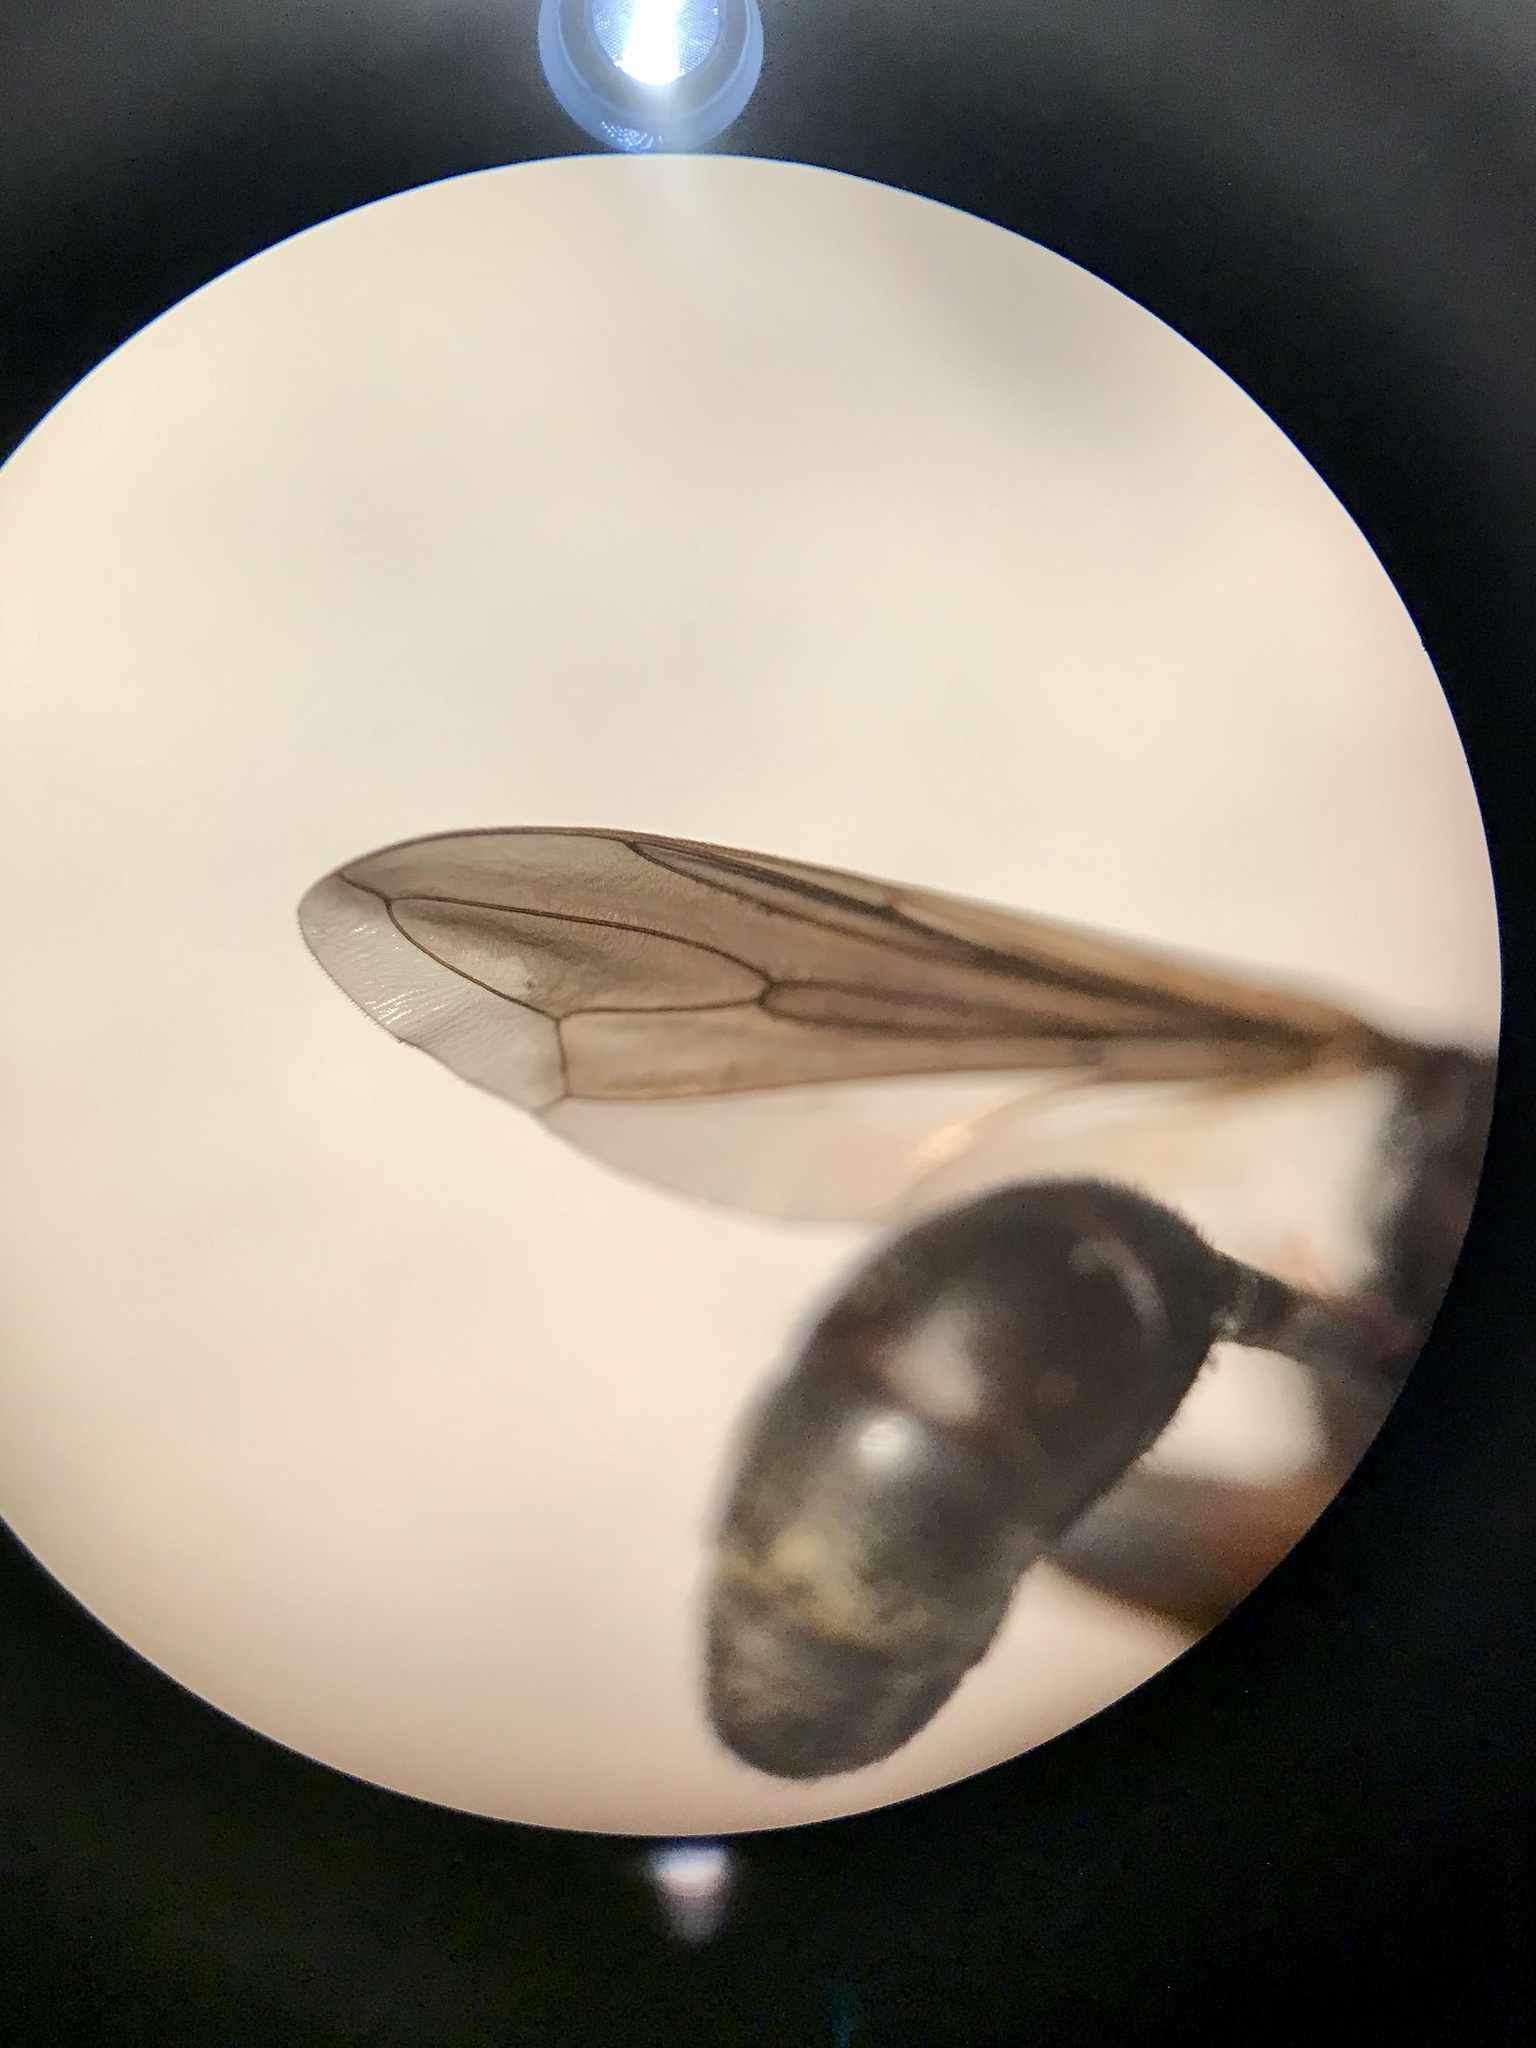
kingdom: Animalia
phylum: Arthropoda
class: Insecta
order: Diptera
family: Conopidae
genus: Physocephala
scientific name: Physocephala tibialis
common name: Common eastern physocephala
